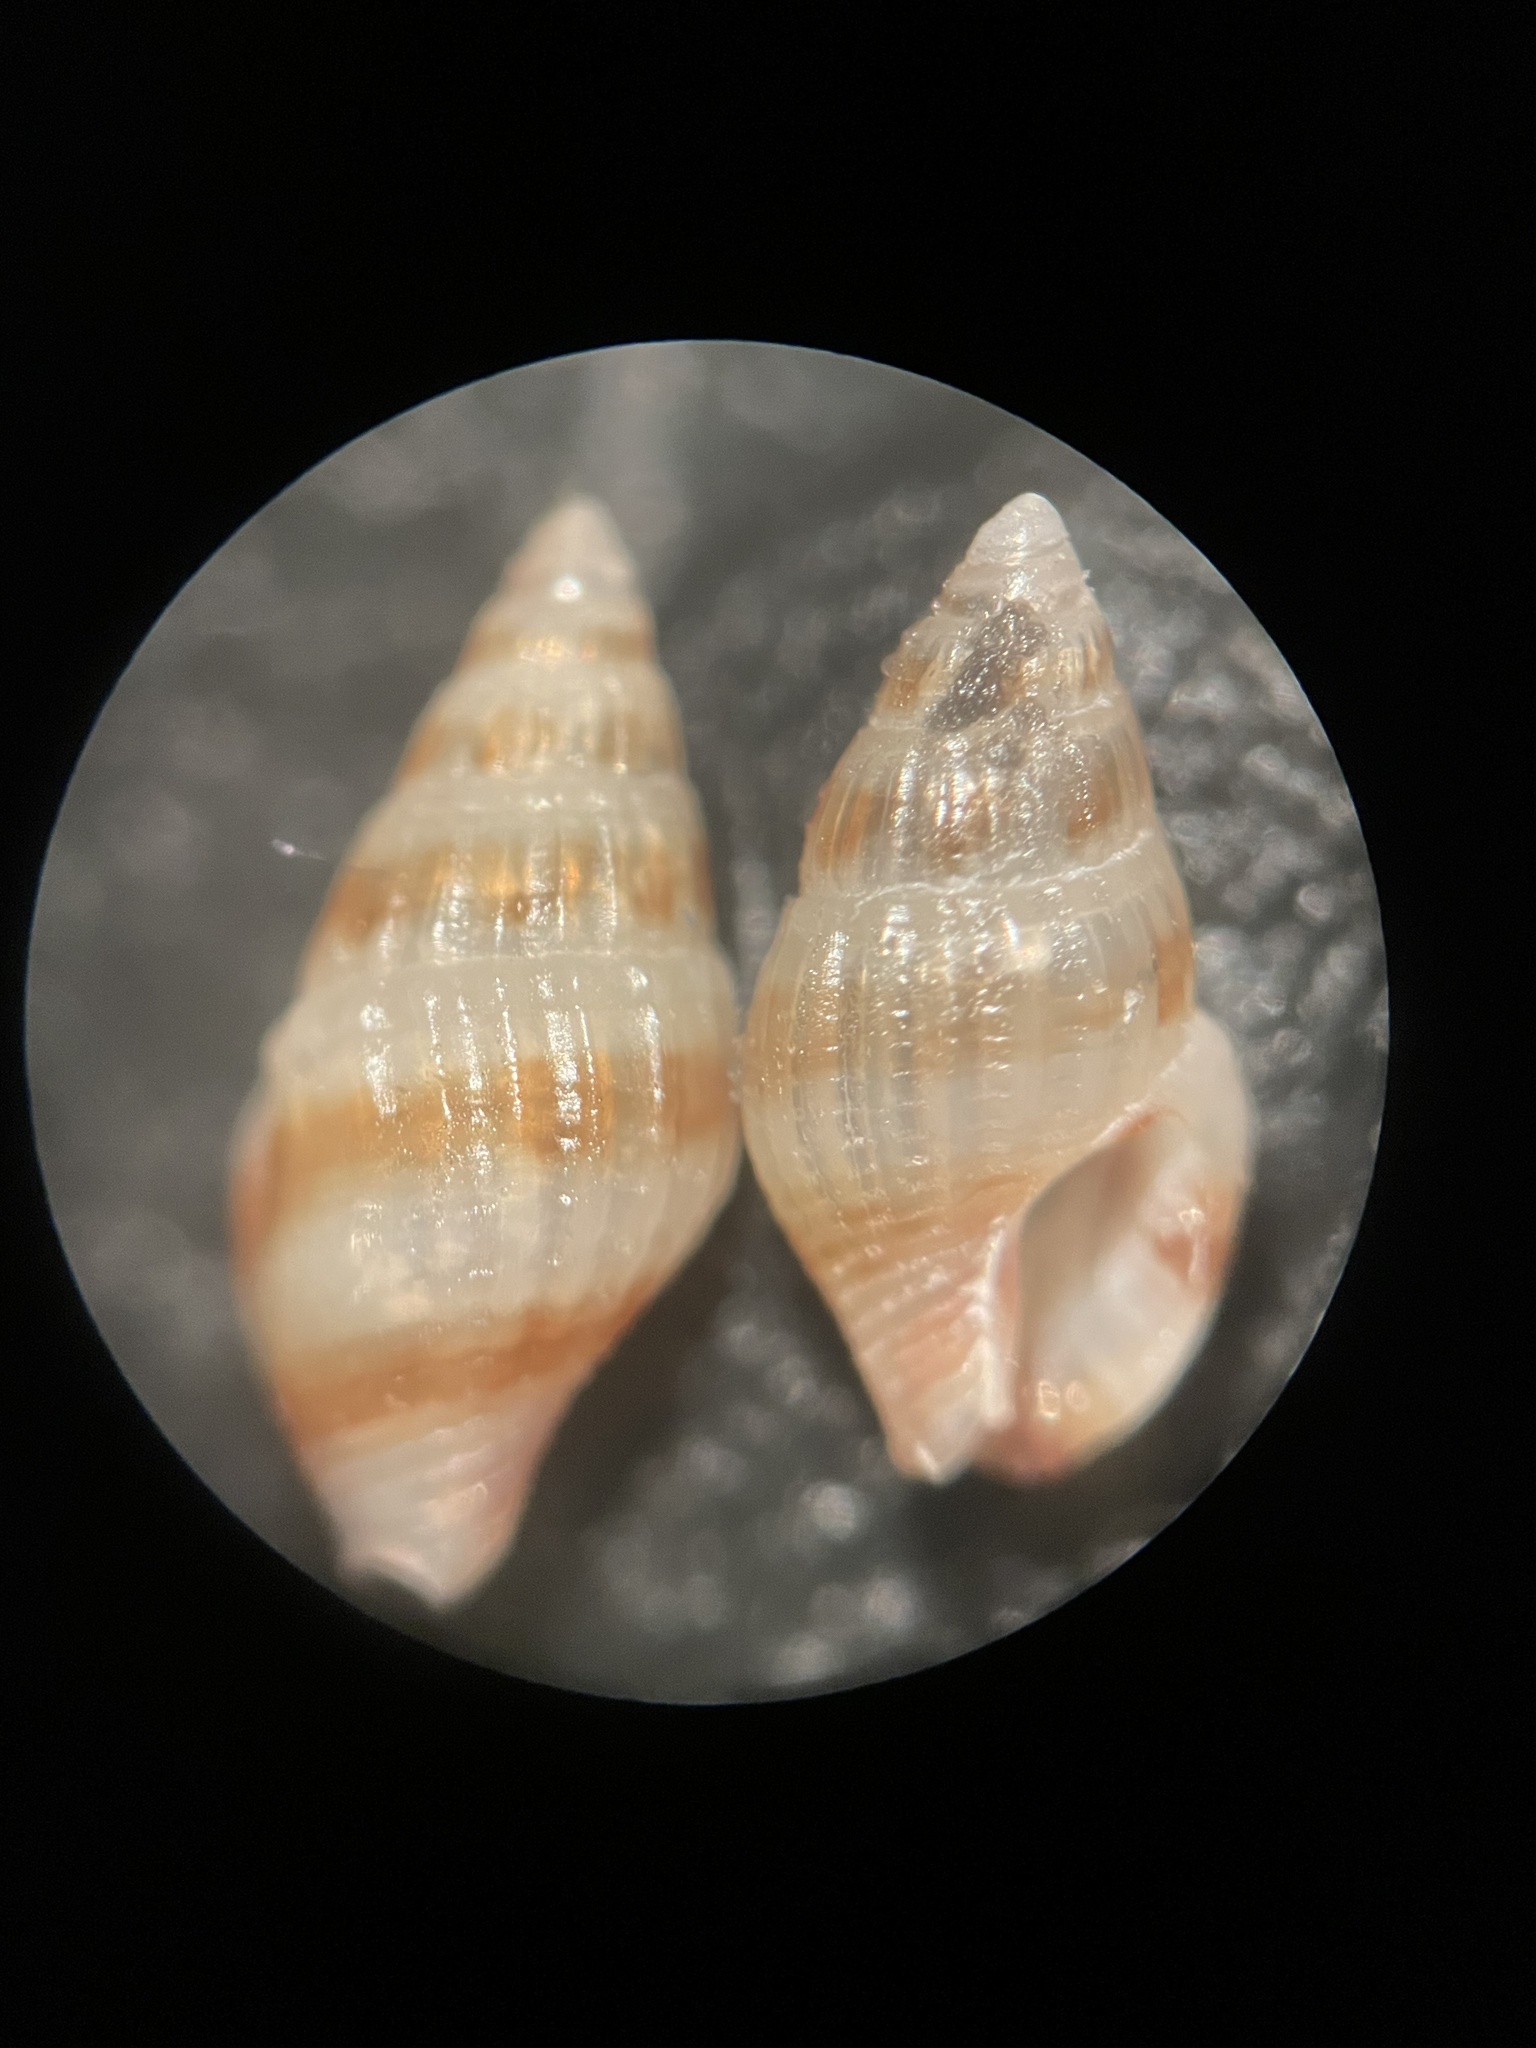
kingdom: Animalia
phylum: Mollusca
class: Gastropoda
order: Neogastropoda
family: Columbellidae
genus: Parvanachis
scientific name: Parvanachis obesa
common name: Fat dovesnail
